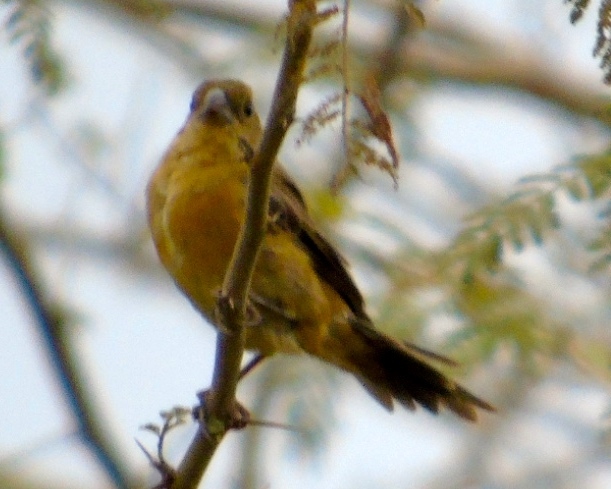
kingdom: Animalia
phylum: Chordata
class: Aves
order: Passeriformes
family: Thraupidae
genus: Sporophila
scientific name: Sporophila torqueola
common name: White-collared seedeater
